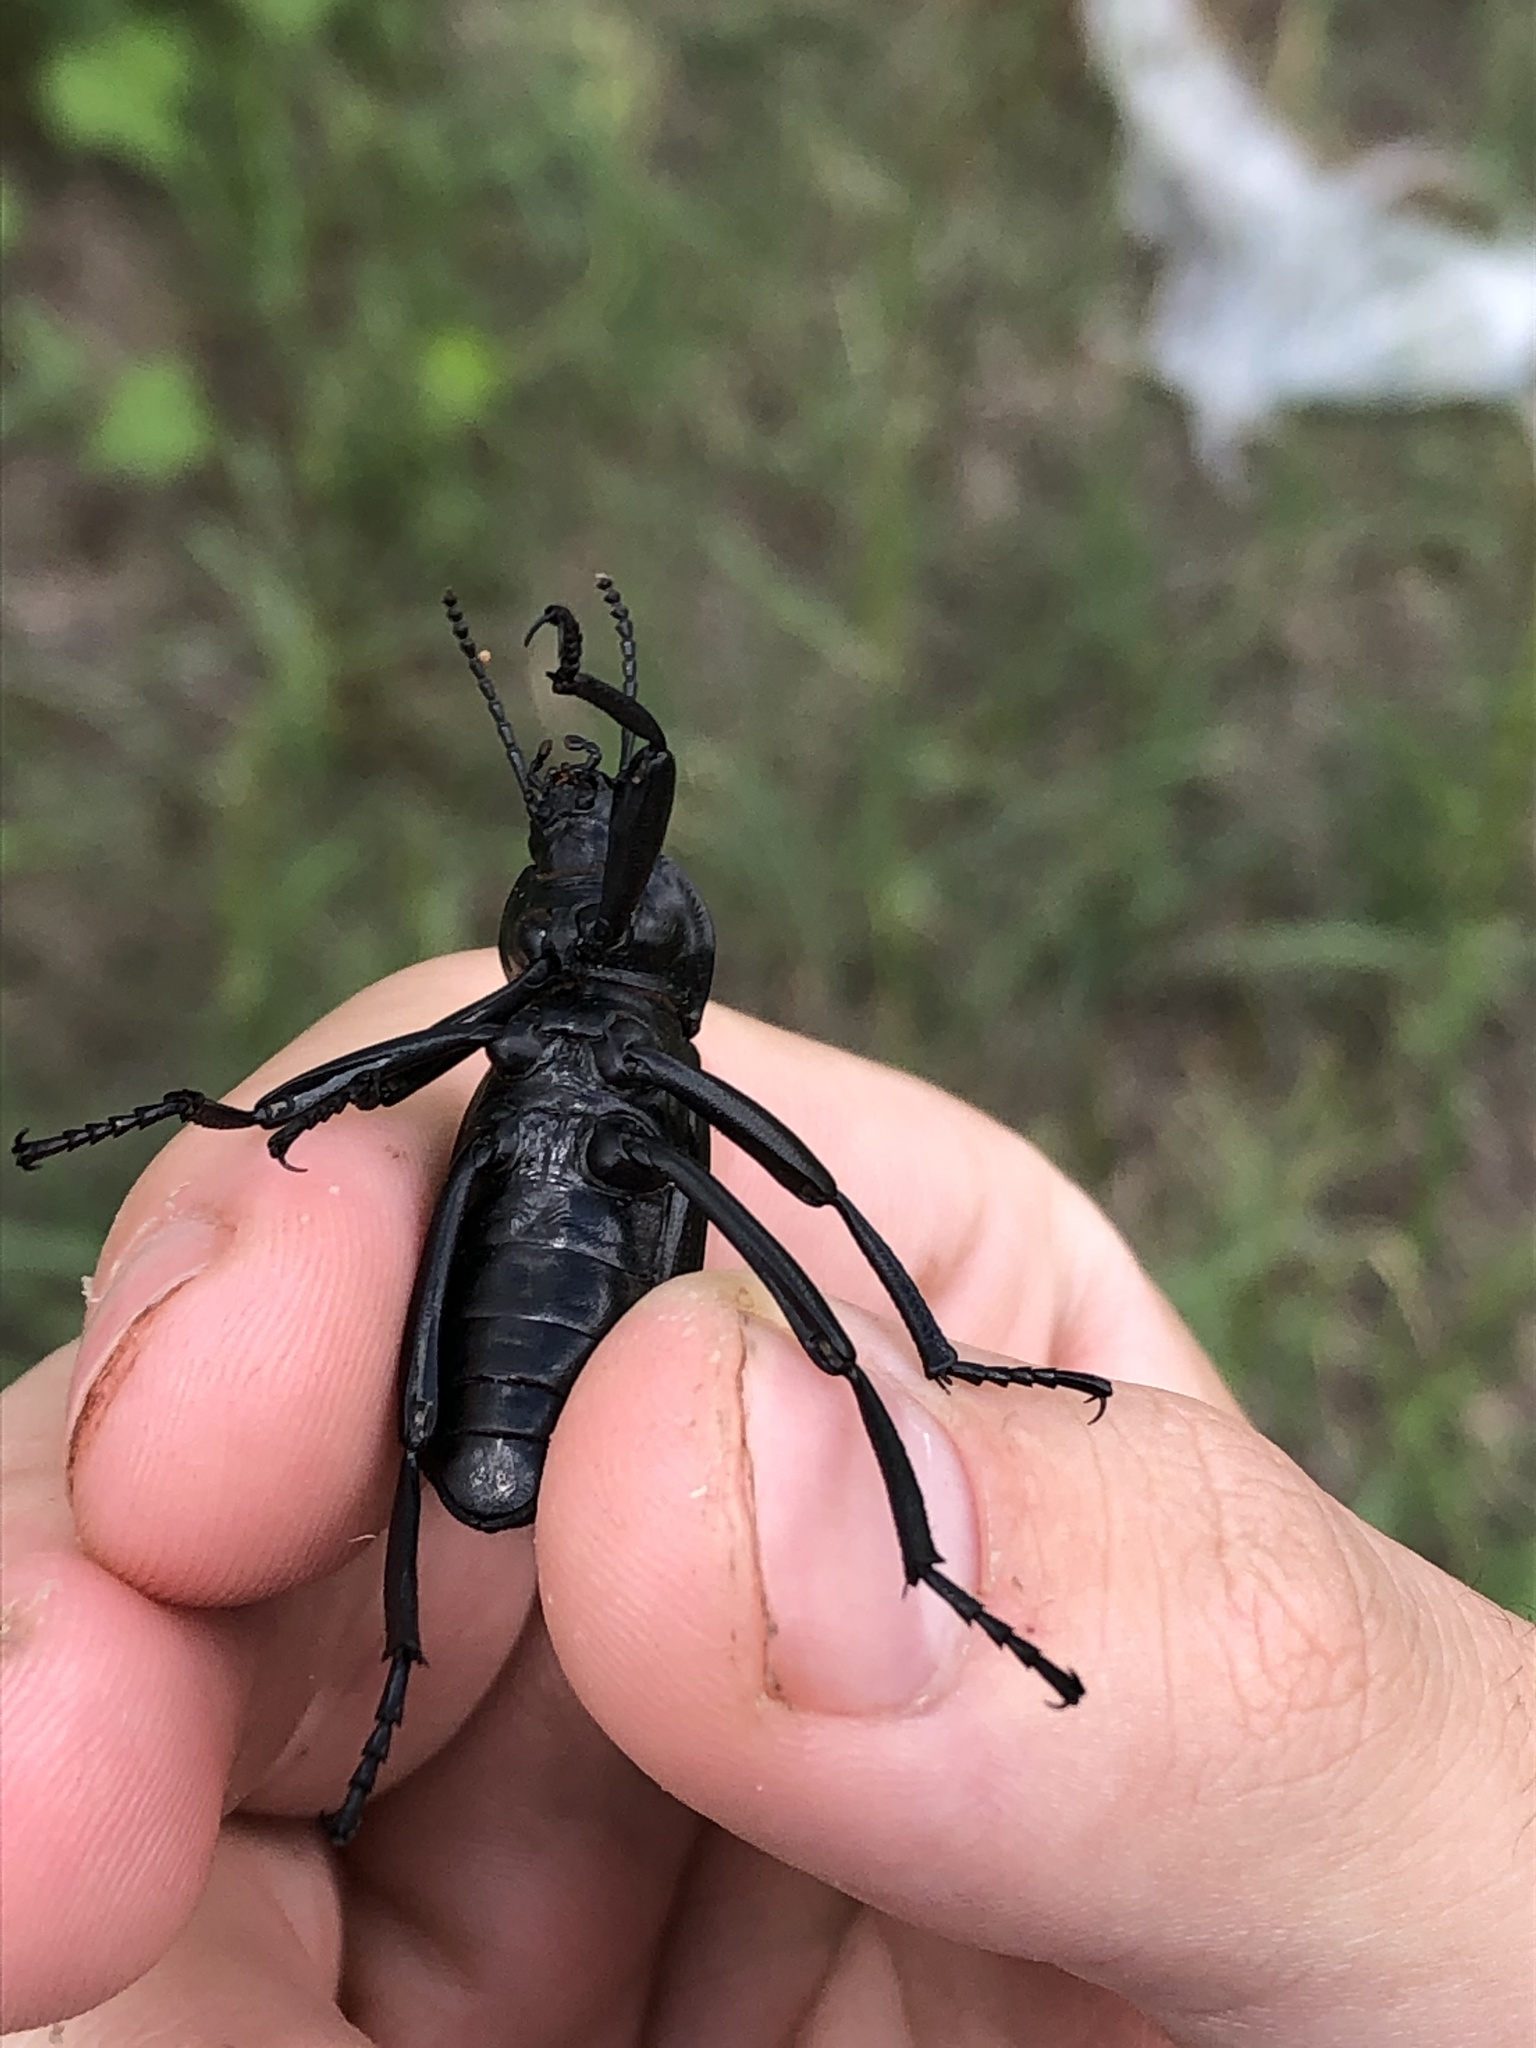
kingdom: Animalia
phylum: Arthropoda
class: Insecta
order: Coleoptera
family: Tenebrionidae
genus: Eleodes
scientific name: Eleodes obscura
